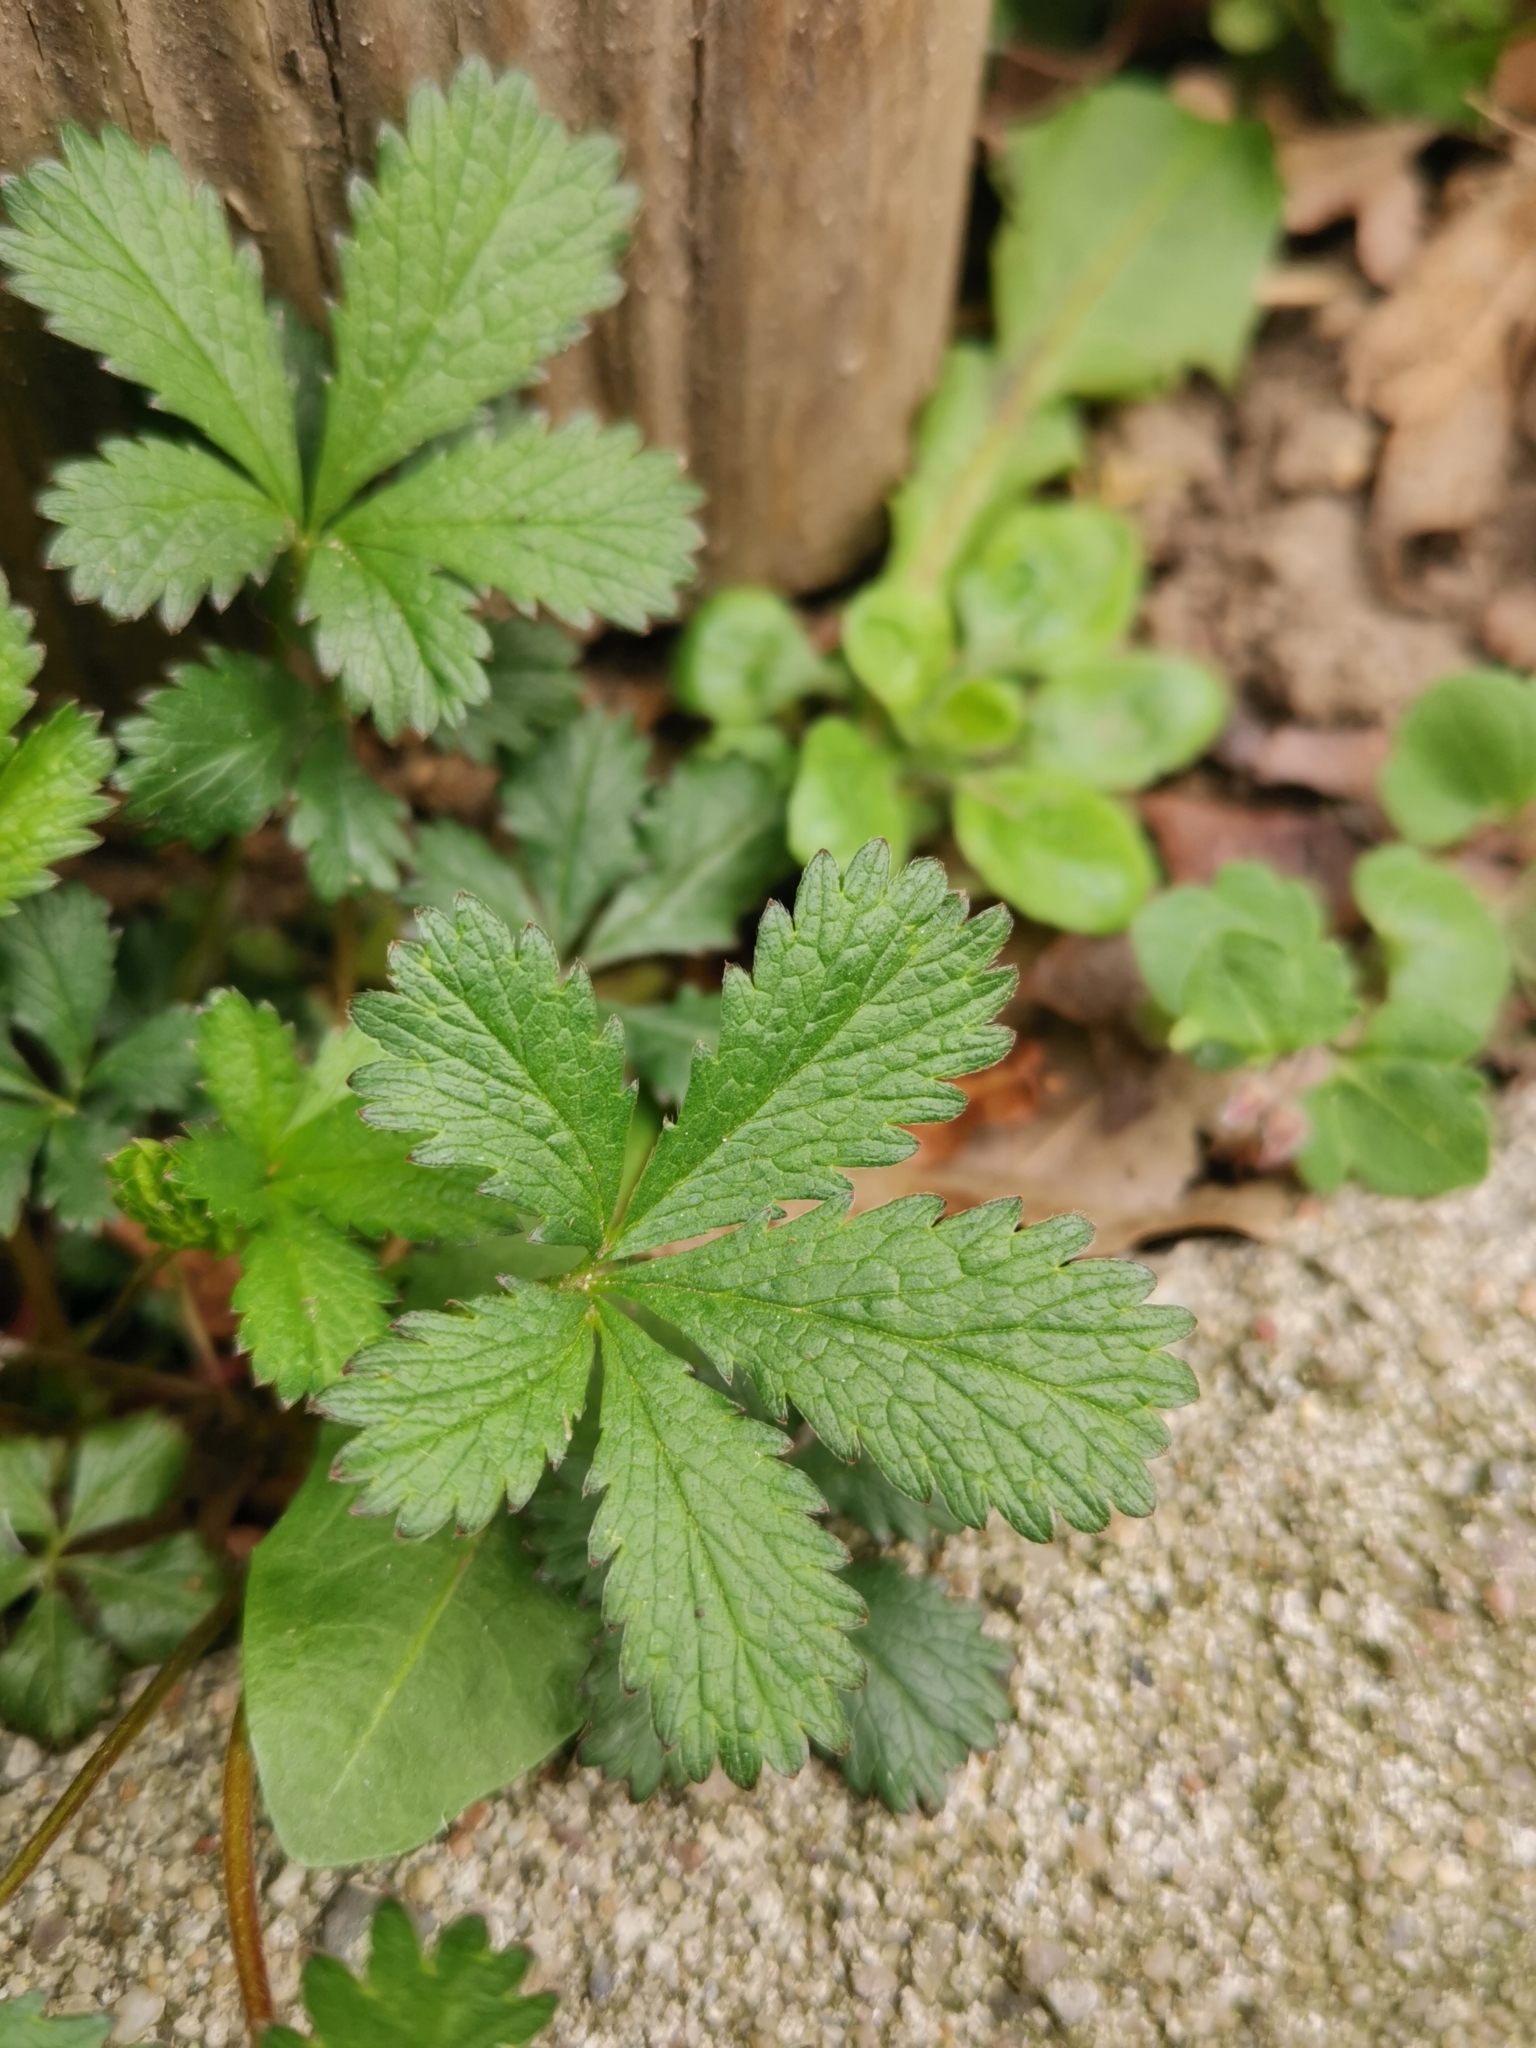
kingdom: Plantae
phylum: Tracheophyta
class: Magnoliopsida
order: Rosales
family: Rosaceae
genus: Potentilla
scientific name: Potentilla reptans
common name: Creeping cinquefoil
